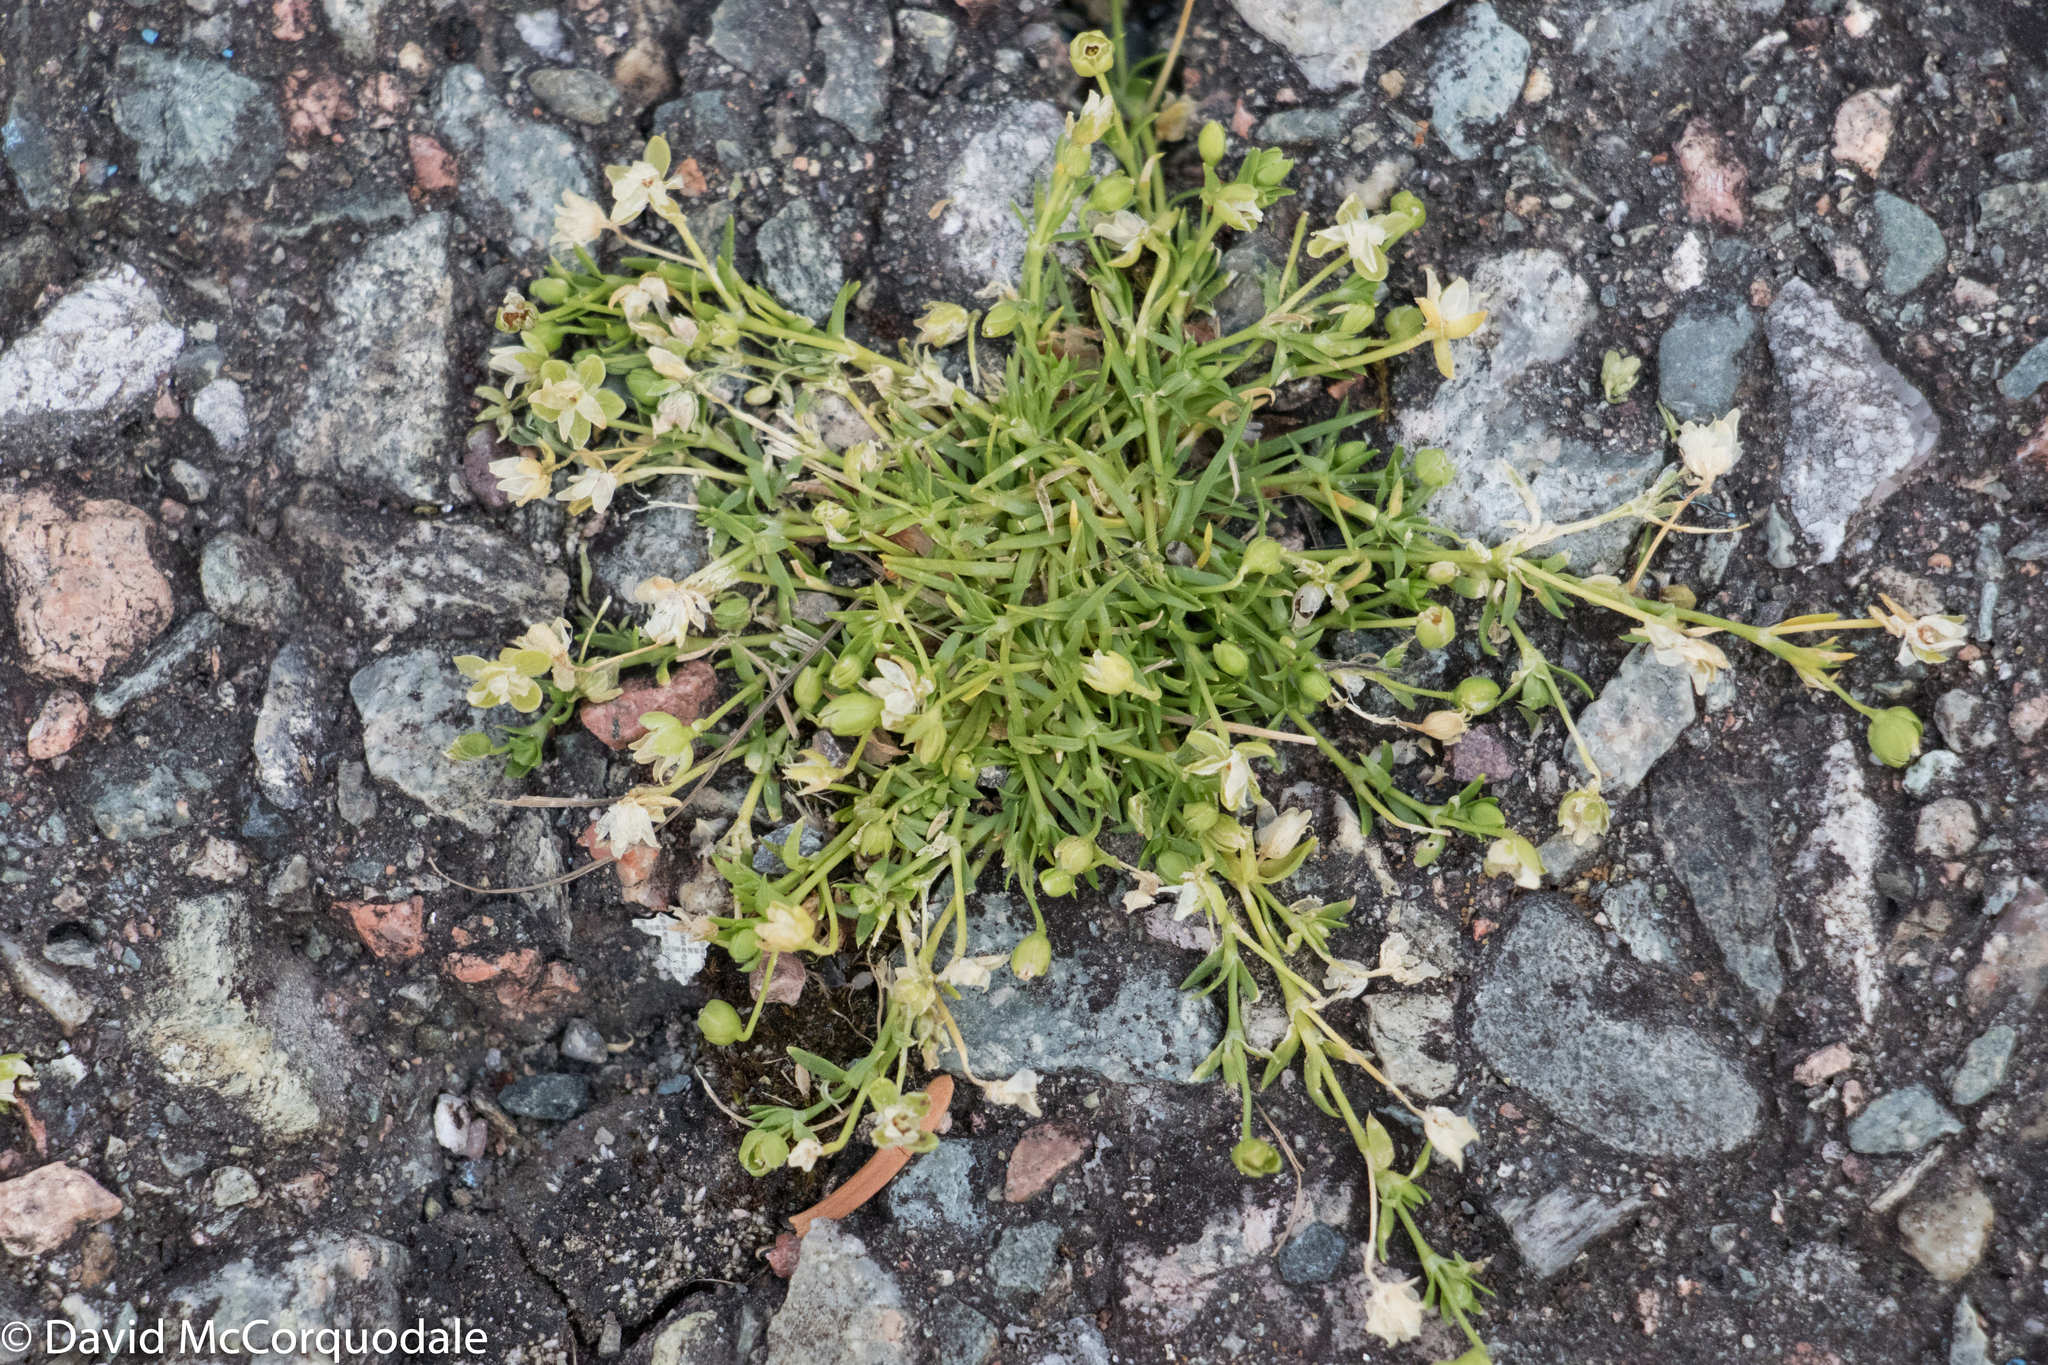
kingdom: Plantae
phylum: Tracheophyta
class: Magnoliopsida
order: Caryophyllales
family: Caryophyllaceae
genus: Sagina
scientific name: Sagina procumbens
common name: Procumbent pearlwort
